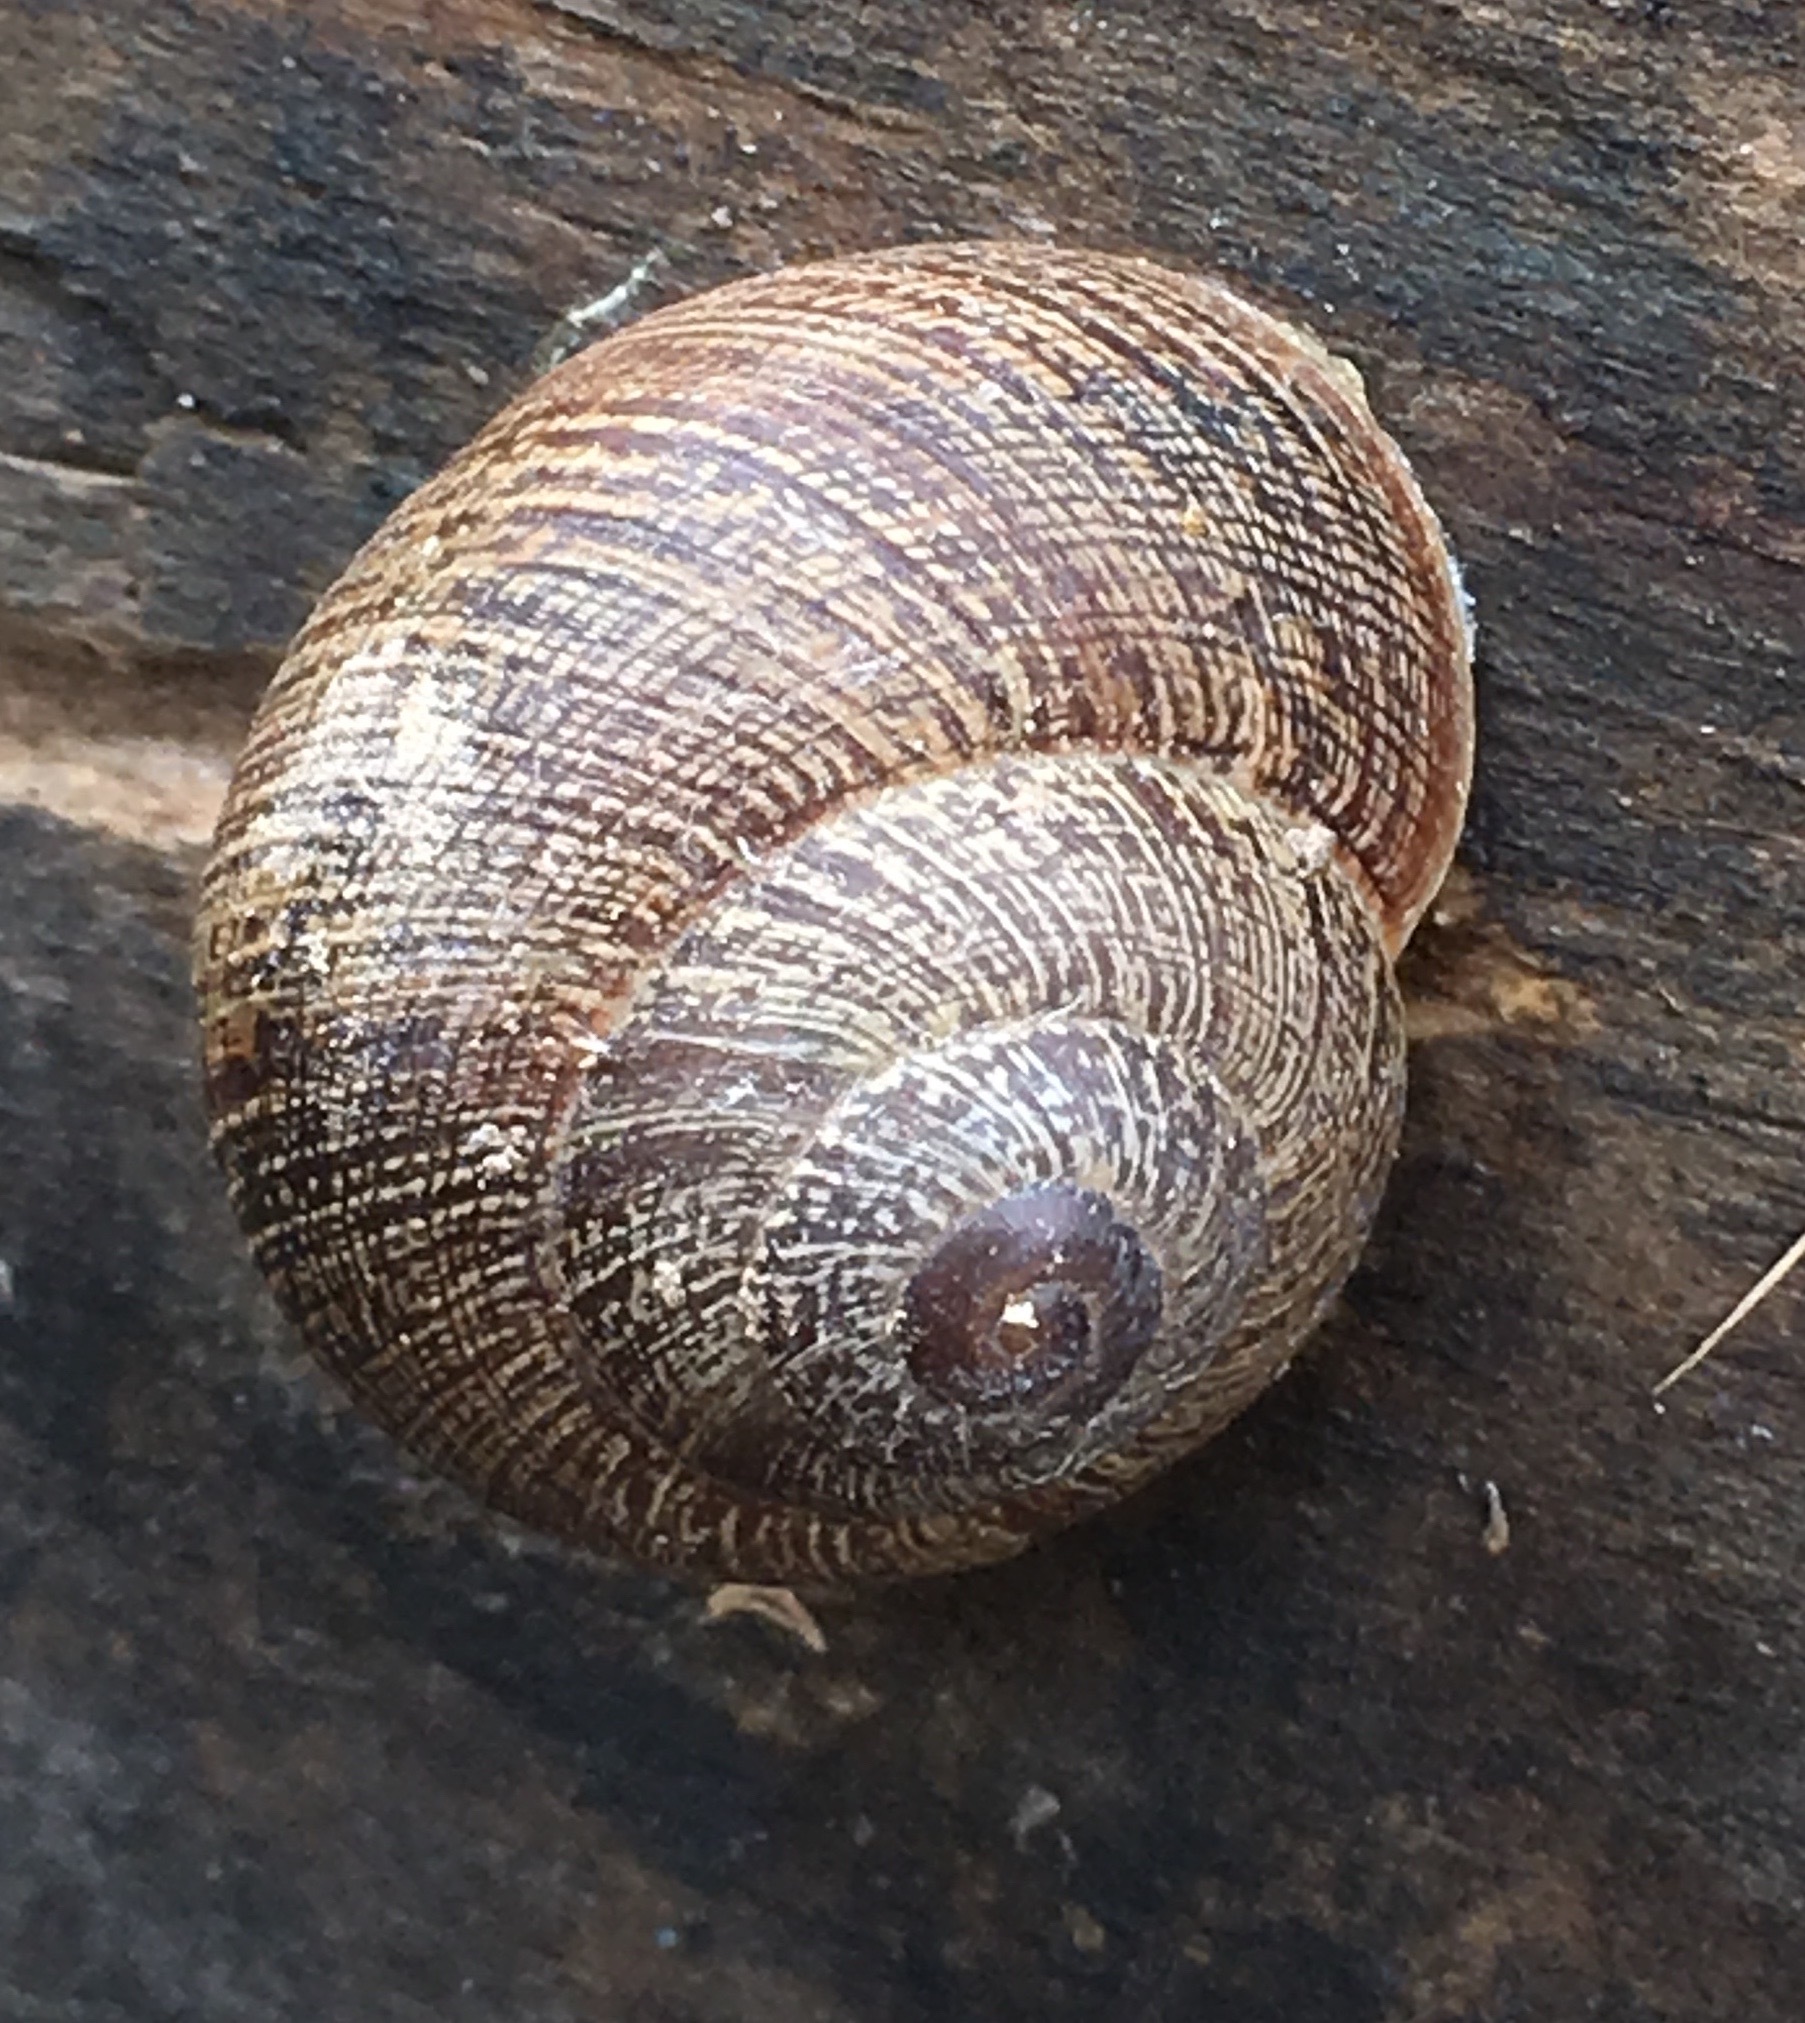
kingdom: Animalia
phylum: Mollusca
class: Gastropoda
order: Stylommatophora
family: Xanthonychidae
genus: Xerarionta
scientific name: Xerarionta intercisa
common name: Plain cactus snail
